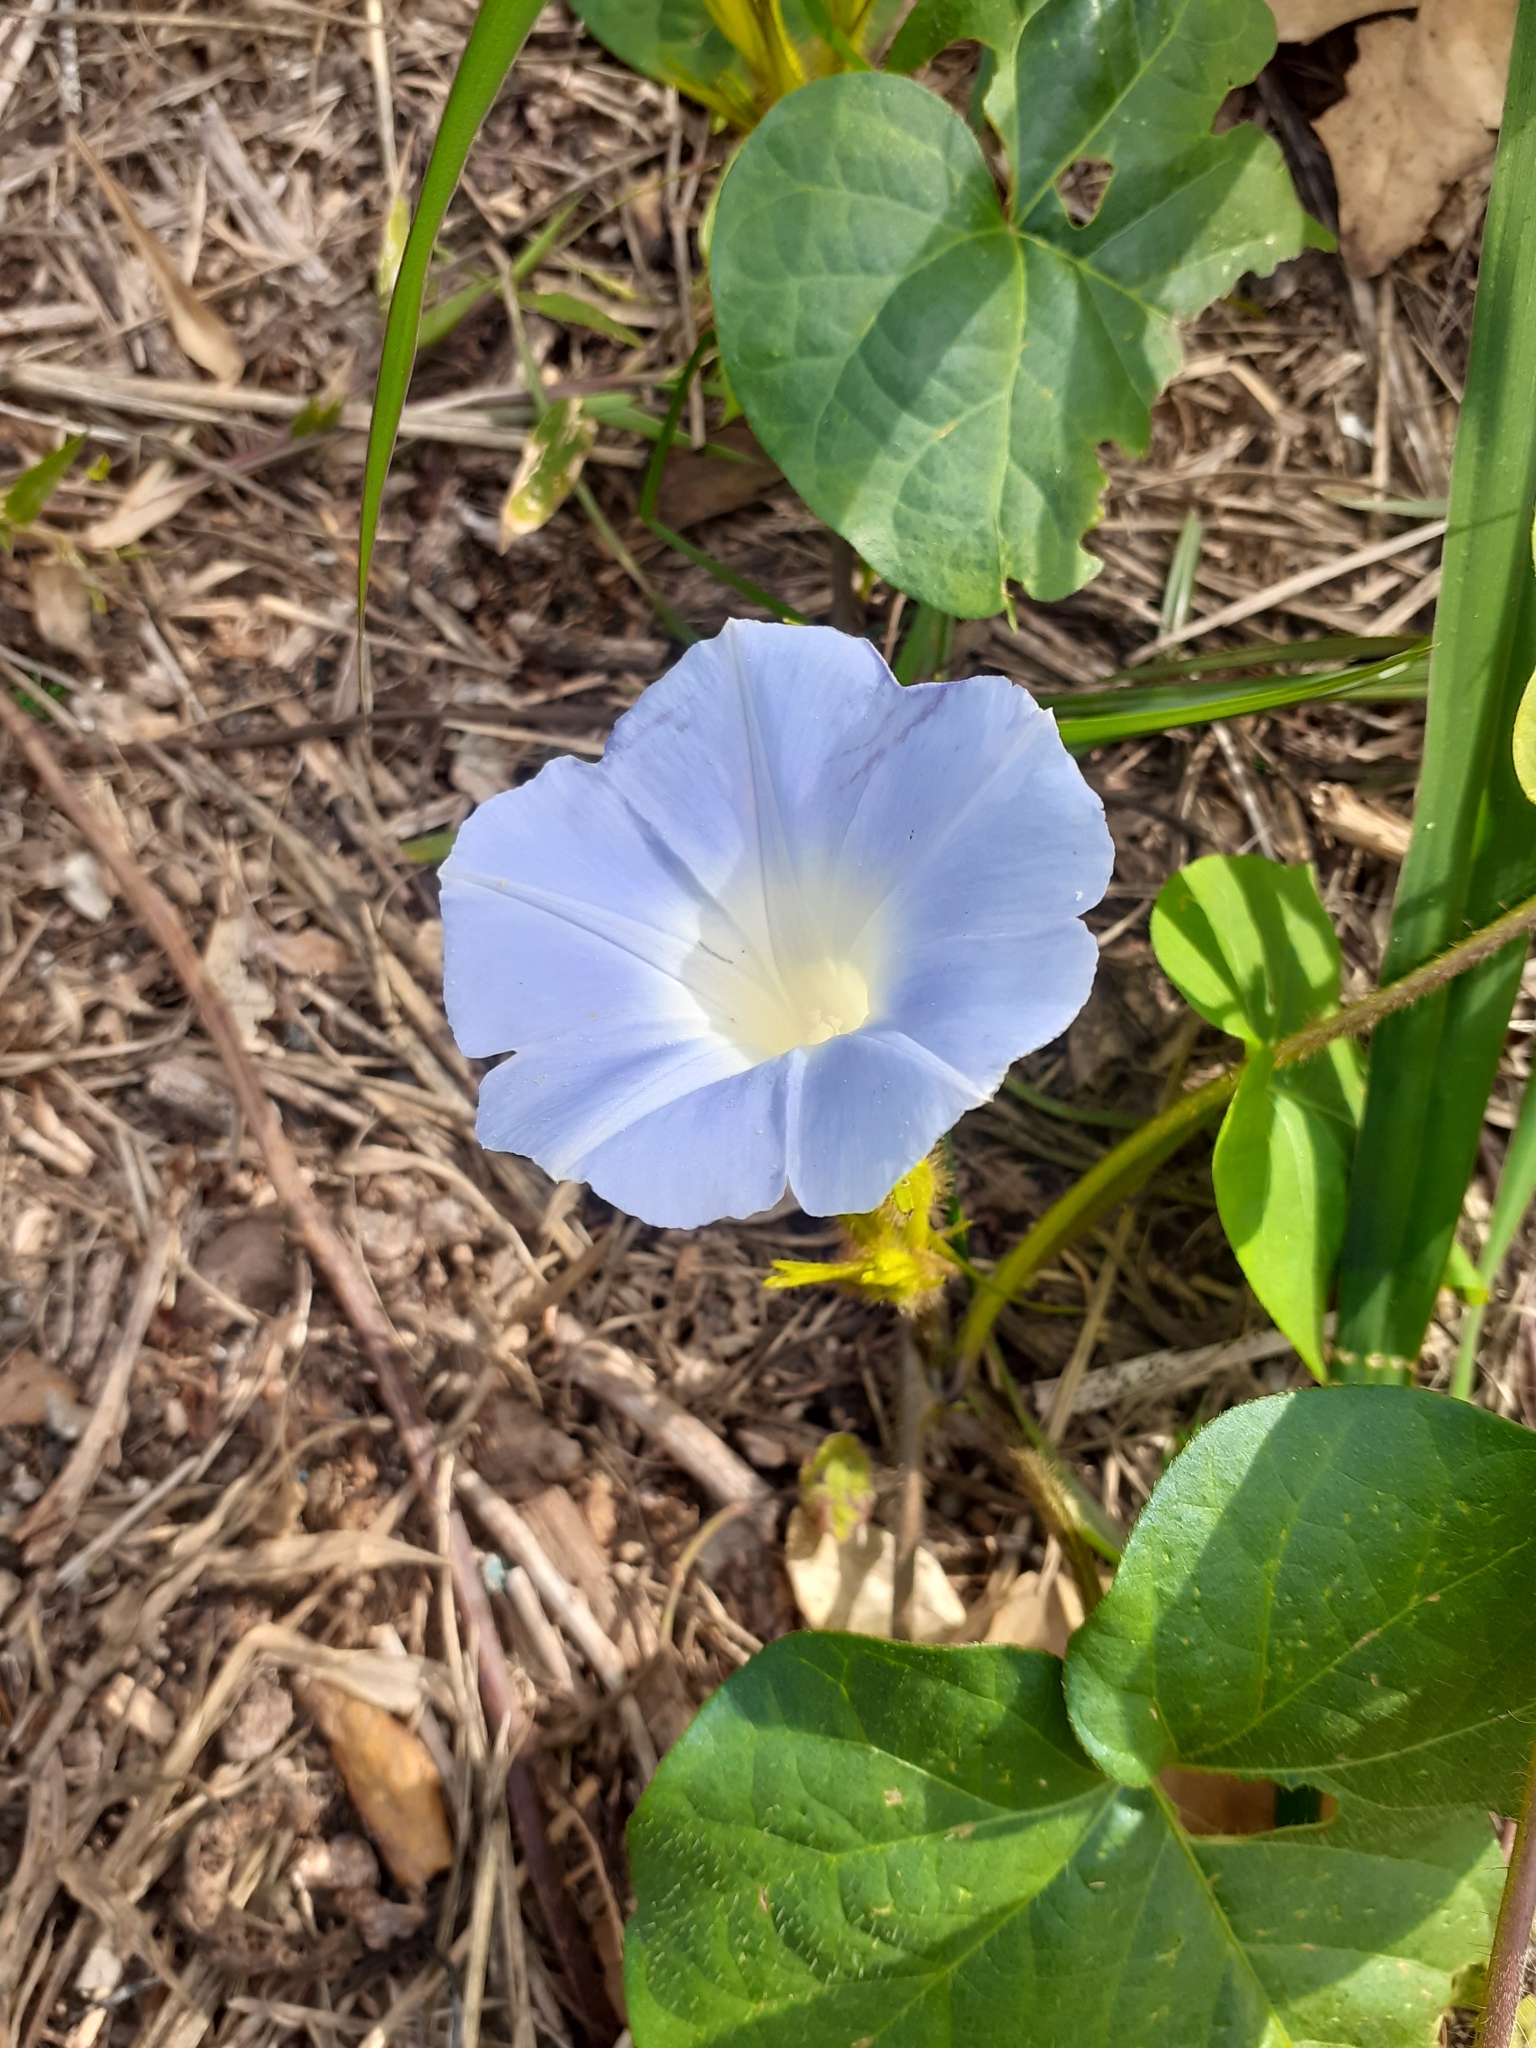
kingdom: Plantae
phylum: Tracheophyta
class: Magnoliopsida
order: Solanales
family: Convolvulaceae
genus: Ipomoea
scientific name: Ipomoea nil
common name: Japanese morning-glory
